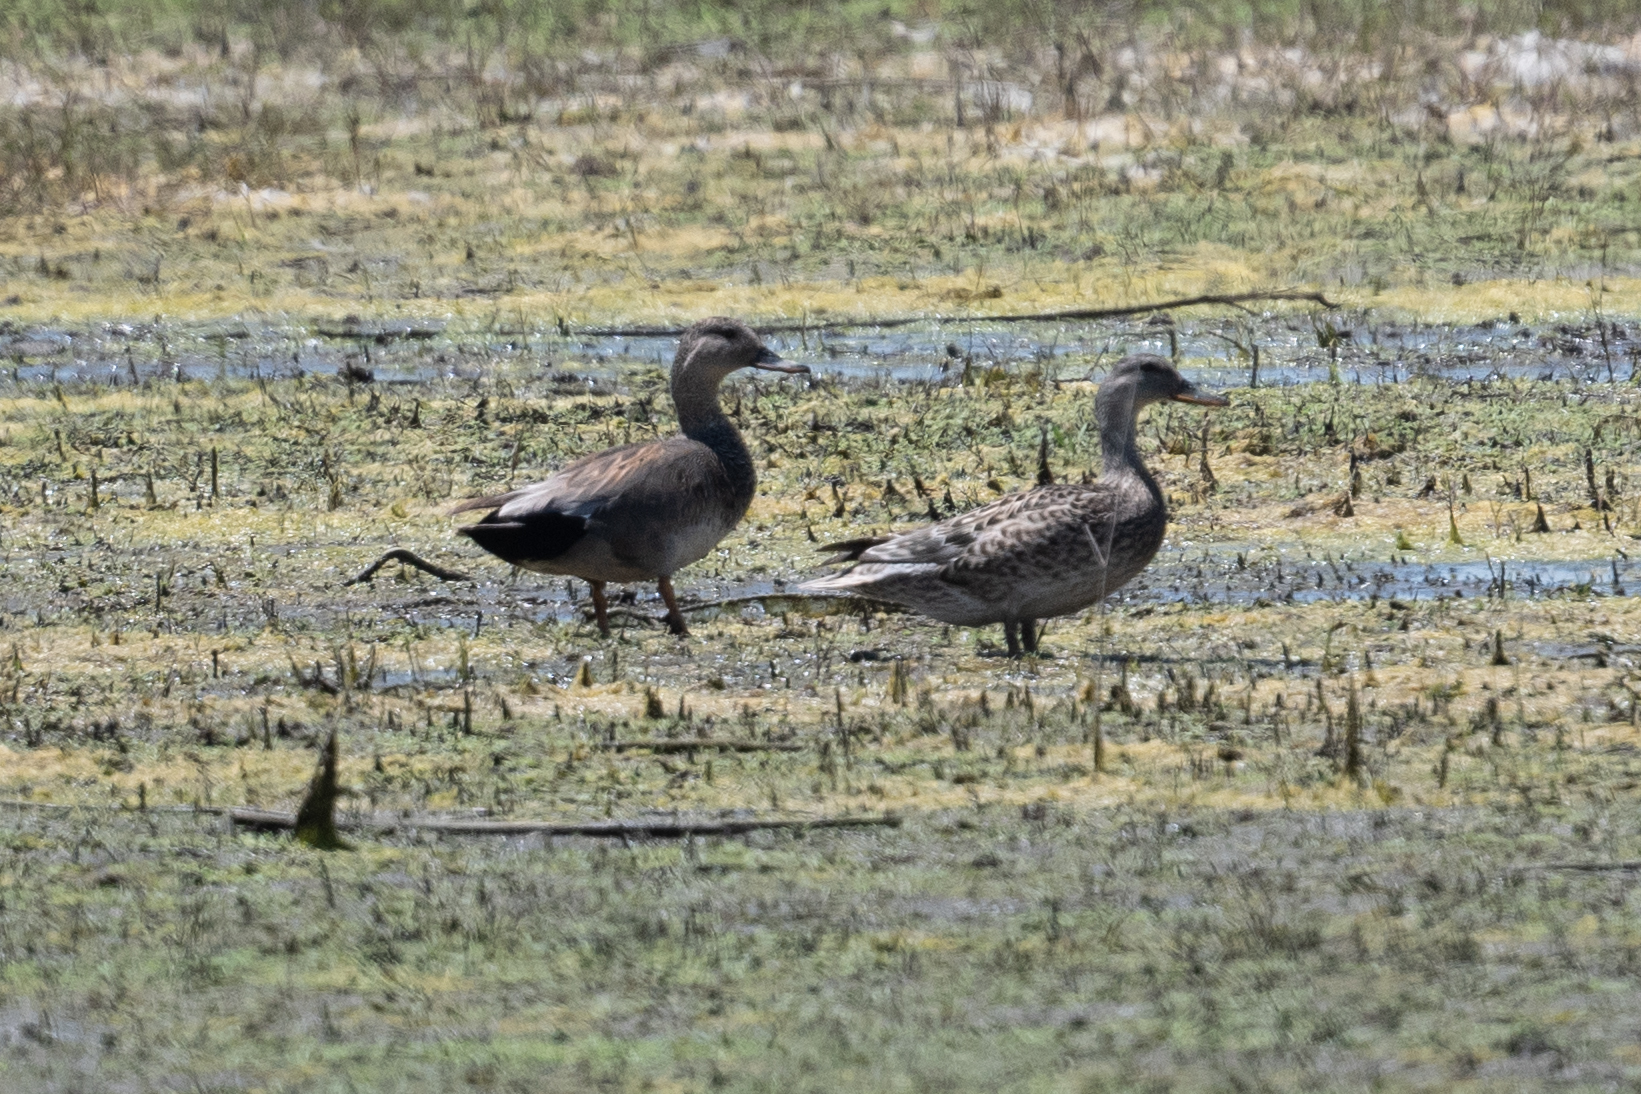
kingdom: Animalia
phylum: Chordata
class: Aves
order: Anseriformes
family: Anatidae
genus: Mareca
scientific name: Mareca strepera
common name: Gadwall
